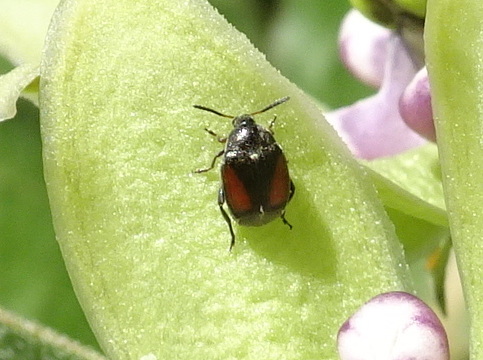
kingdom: Animalia
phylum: Arthropoda
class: Insecta
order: Coleoptera
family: Chrysomelidae
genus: Sennius
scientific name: Sennius cruentatus
